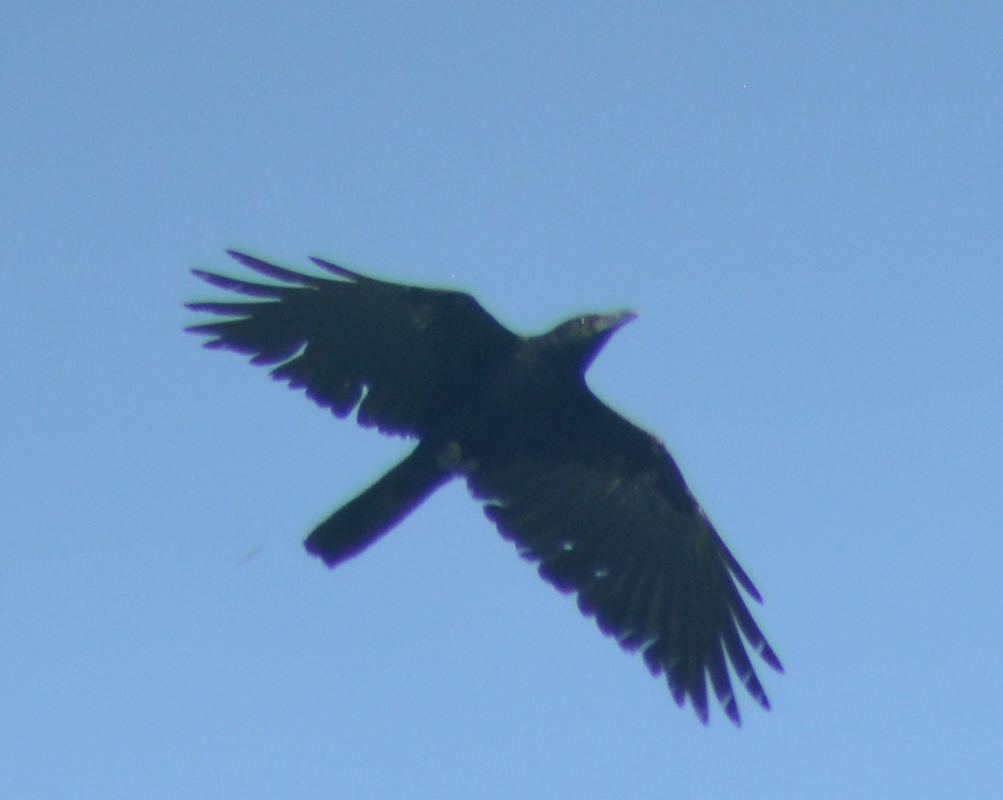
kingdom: Animalia
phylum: Chordata
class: Aves
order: Passeriformes
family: Corvidae
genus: Corvus
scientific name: Corvus corax
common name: Common raven
